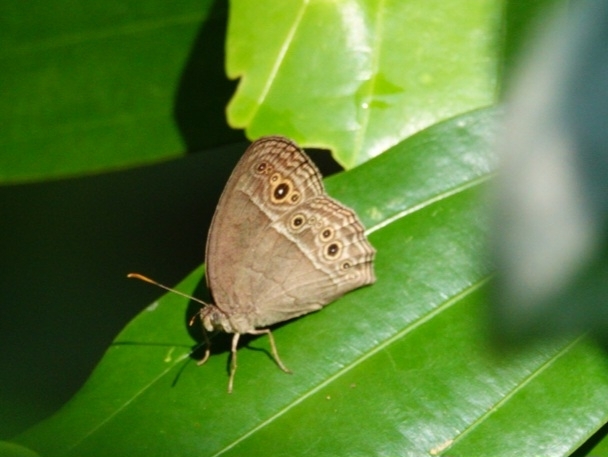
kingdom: Animalia
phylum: Arthropoda
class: Insecta
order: Lepidoptera
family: Nymphalidae
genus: Mycalesis
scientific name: Mycalesis perseoides
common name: Burmese bushbrown
